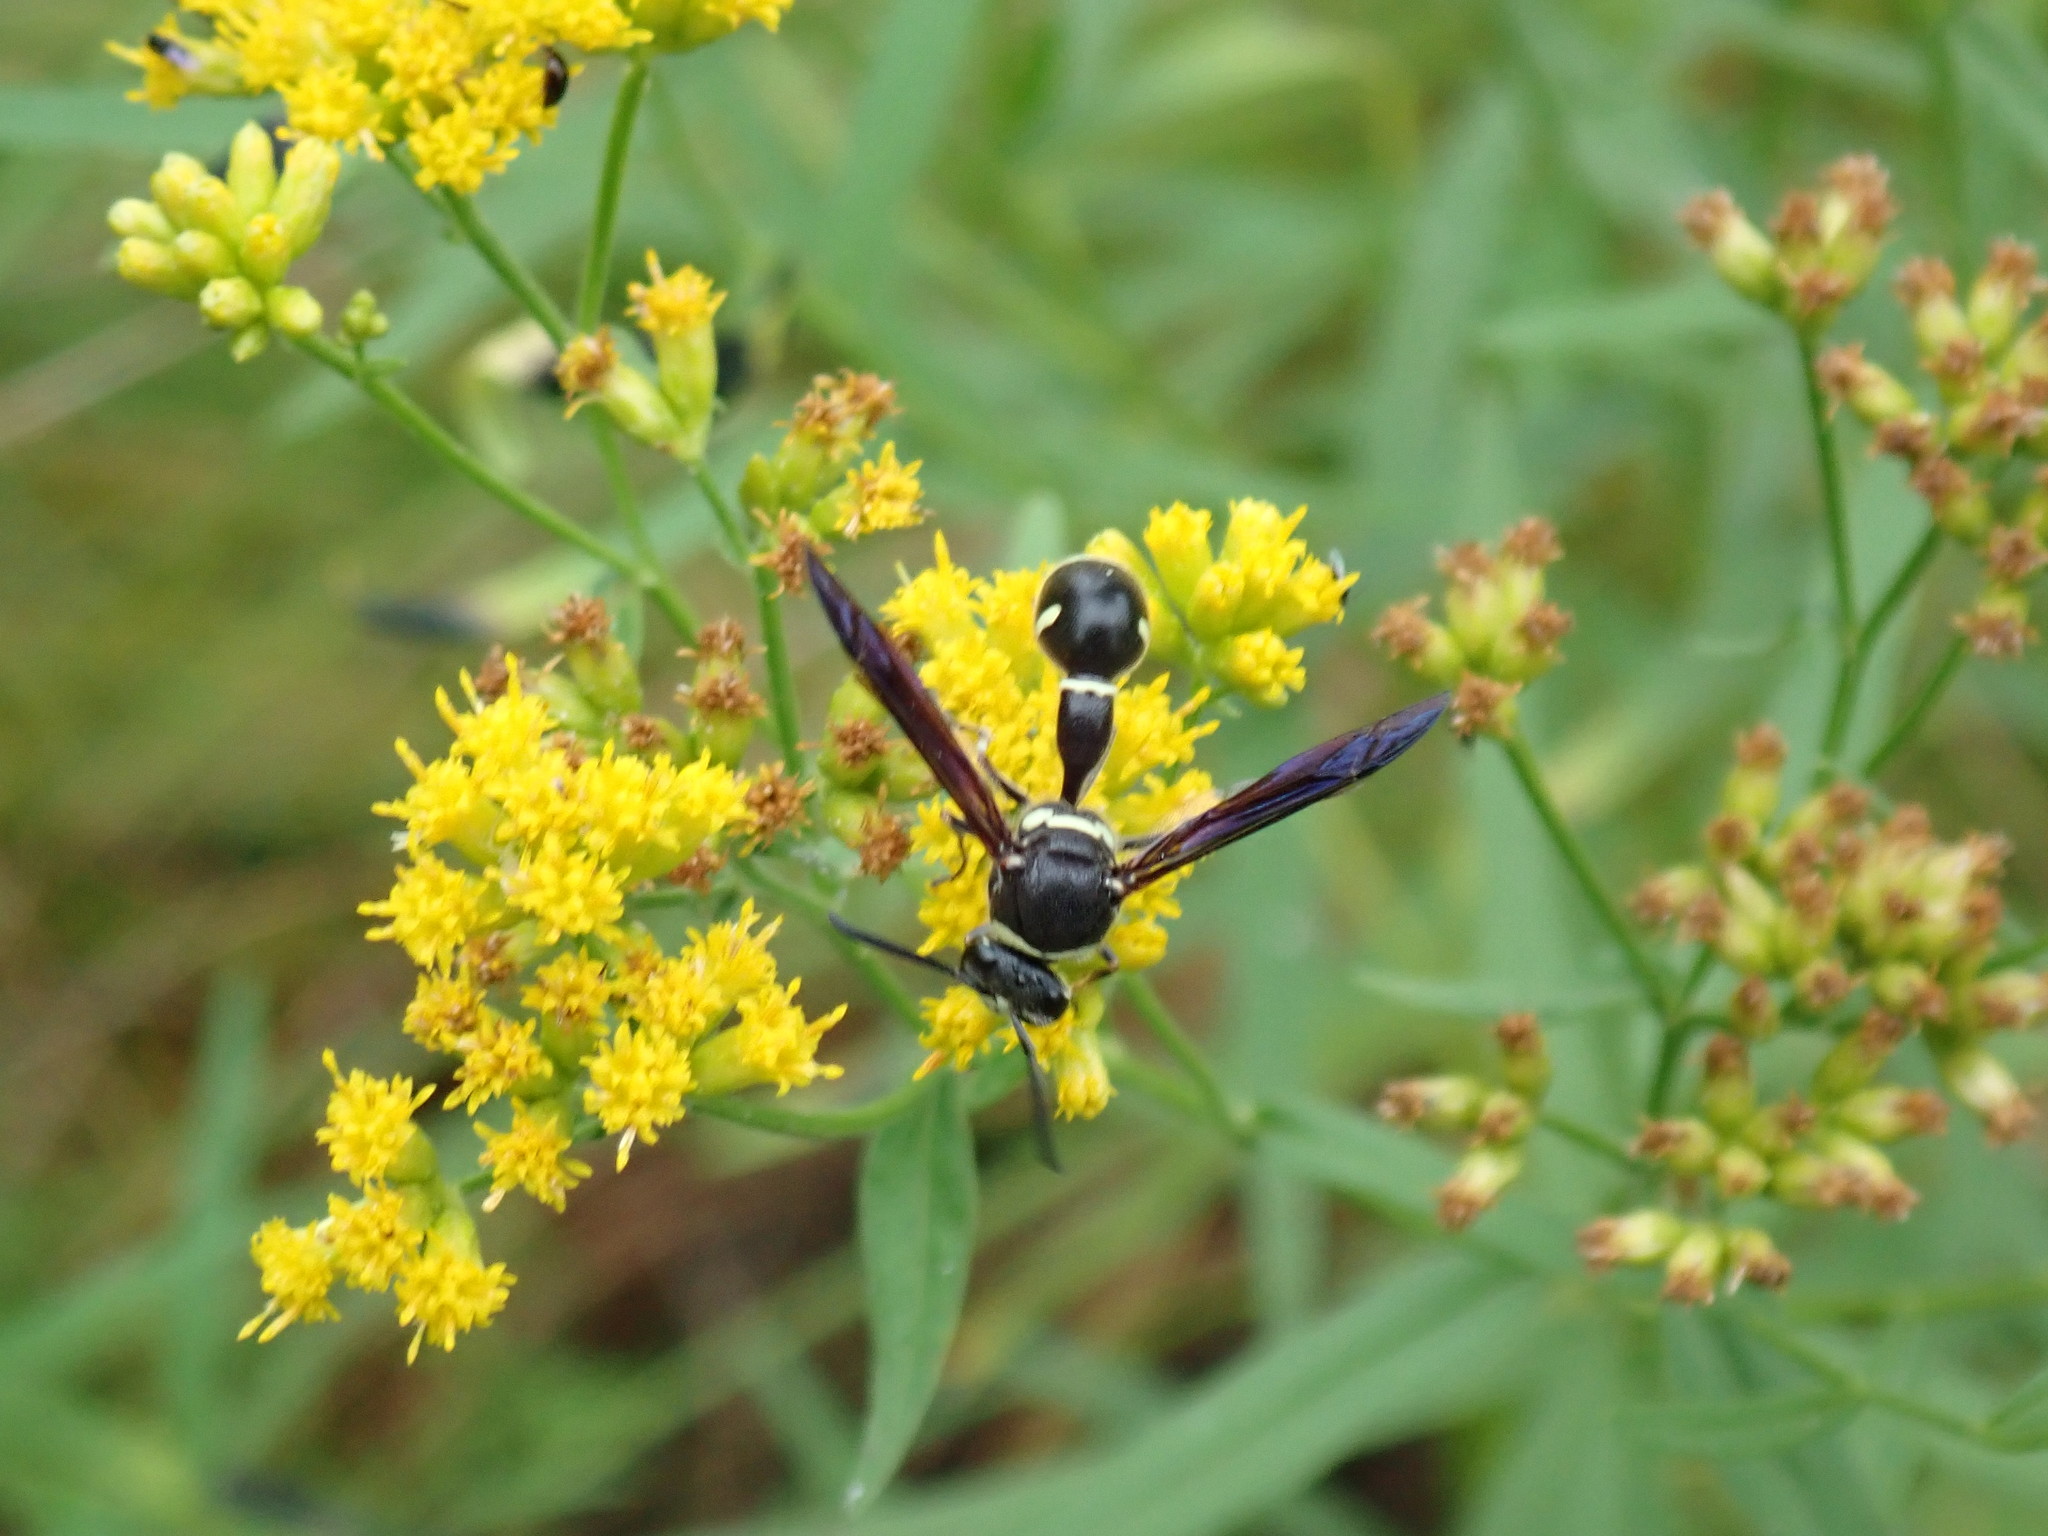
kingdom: Animalia
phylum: Arthropoda
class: Insecta
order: Hymenoptera
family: Vespidae
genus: Eumenes
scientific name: Eumenes fraternus
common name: Fraternal potter wasp
